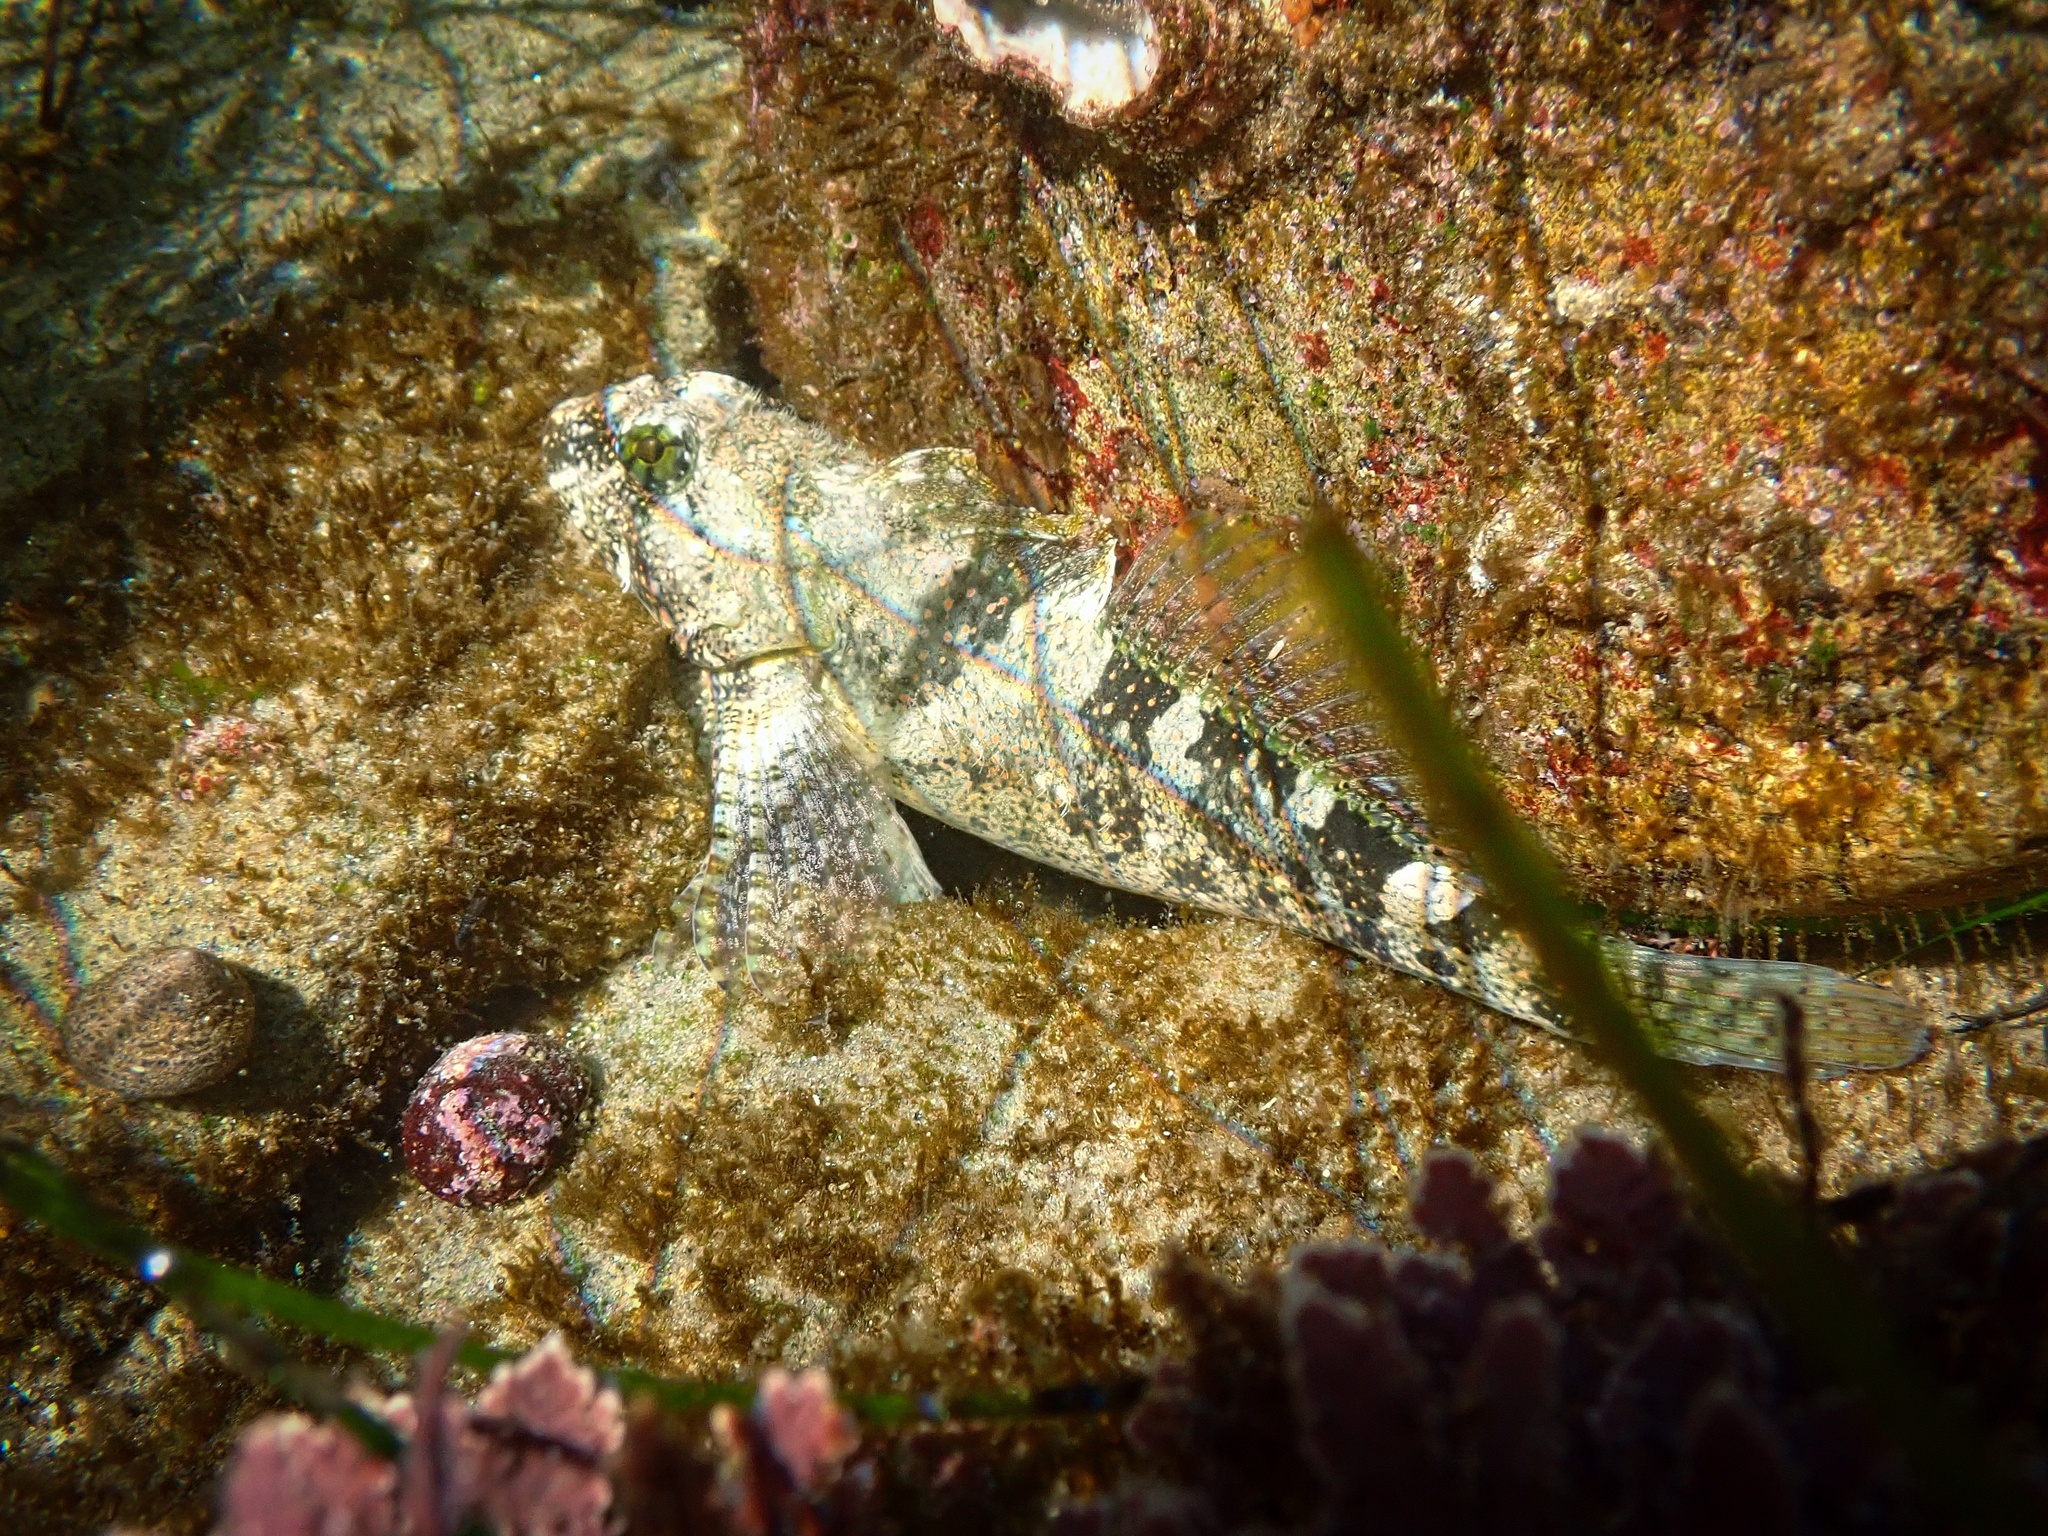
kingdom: Animalia
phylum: Chordata
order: Scorpaeniformes
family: Cottidae
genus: Clinocottus
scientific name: Clinocottus analis
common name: Woolly sculpin
